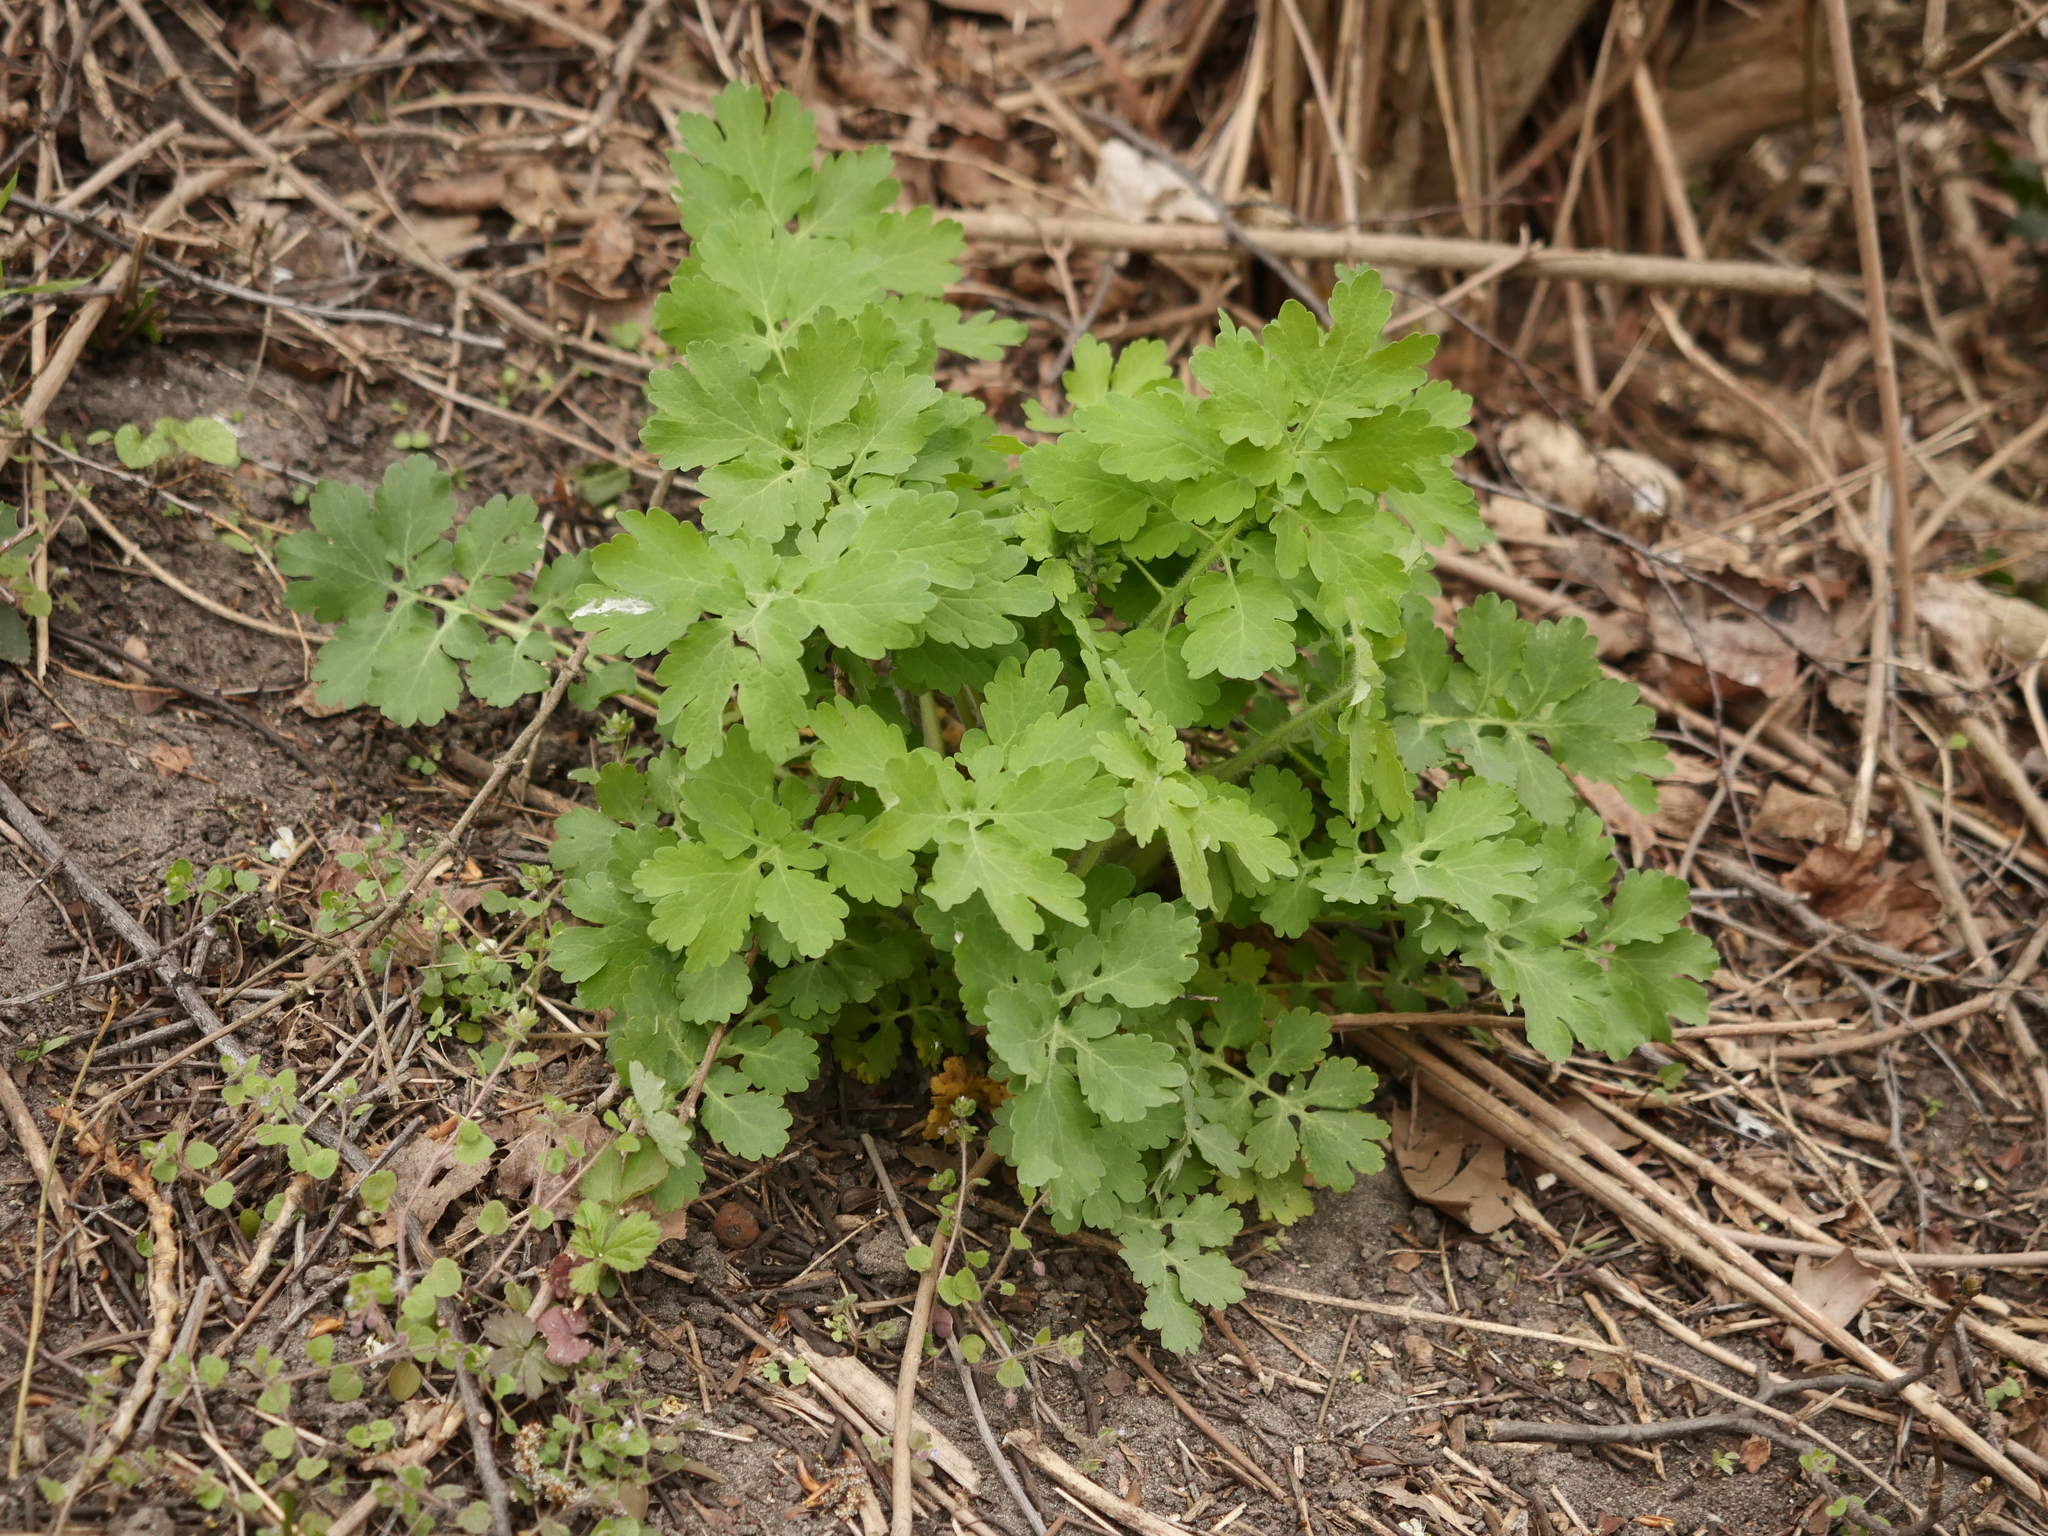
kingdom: Plantae
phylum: Tracheophyta
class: Magnoliopsida
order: Ranunculales
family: Papaveraceae
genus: Chelidonium
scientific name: Chelidonium majus
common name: Greater celandine
